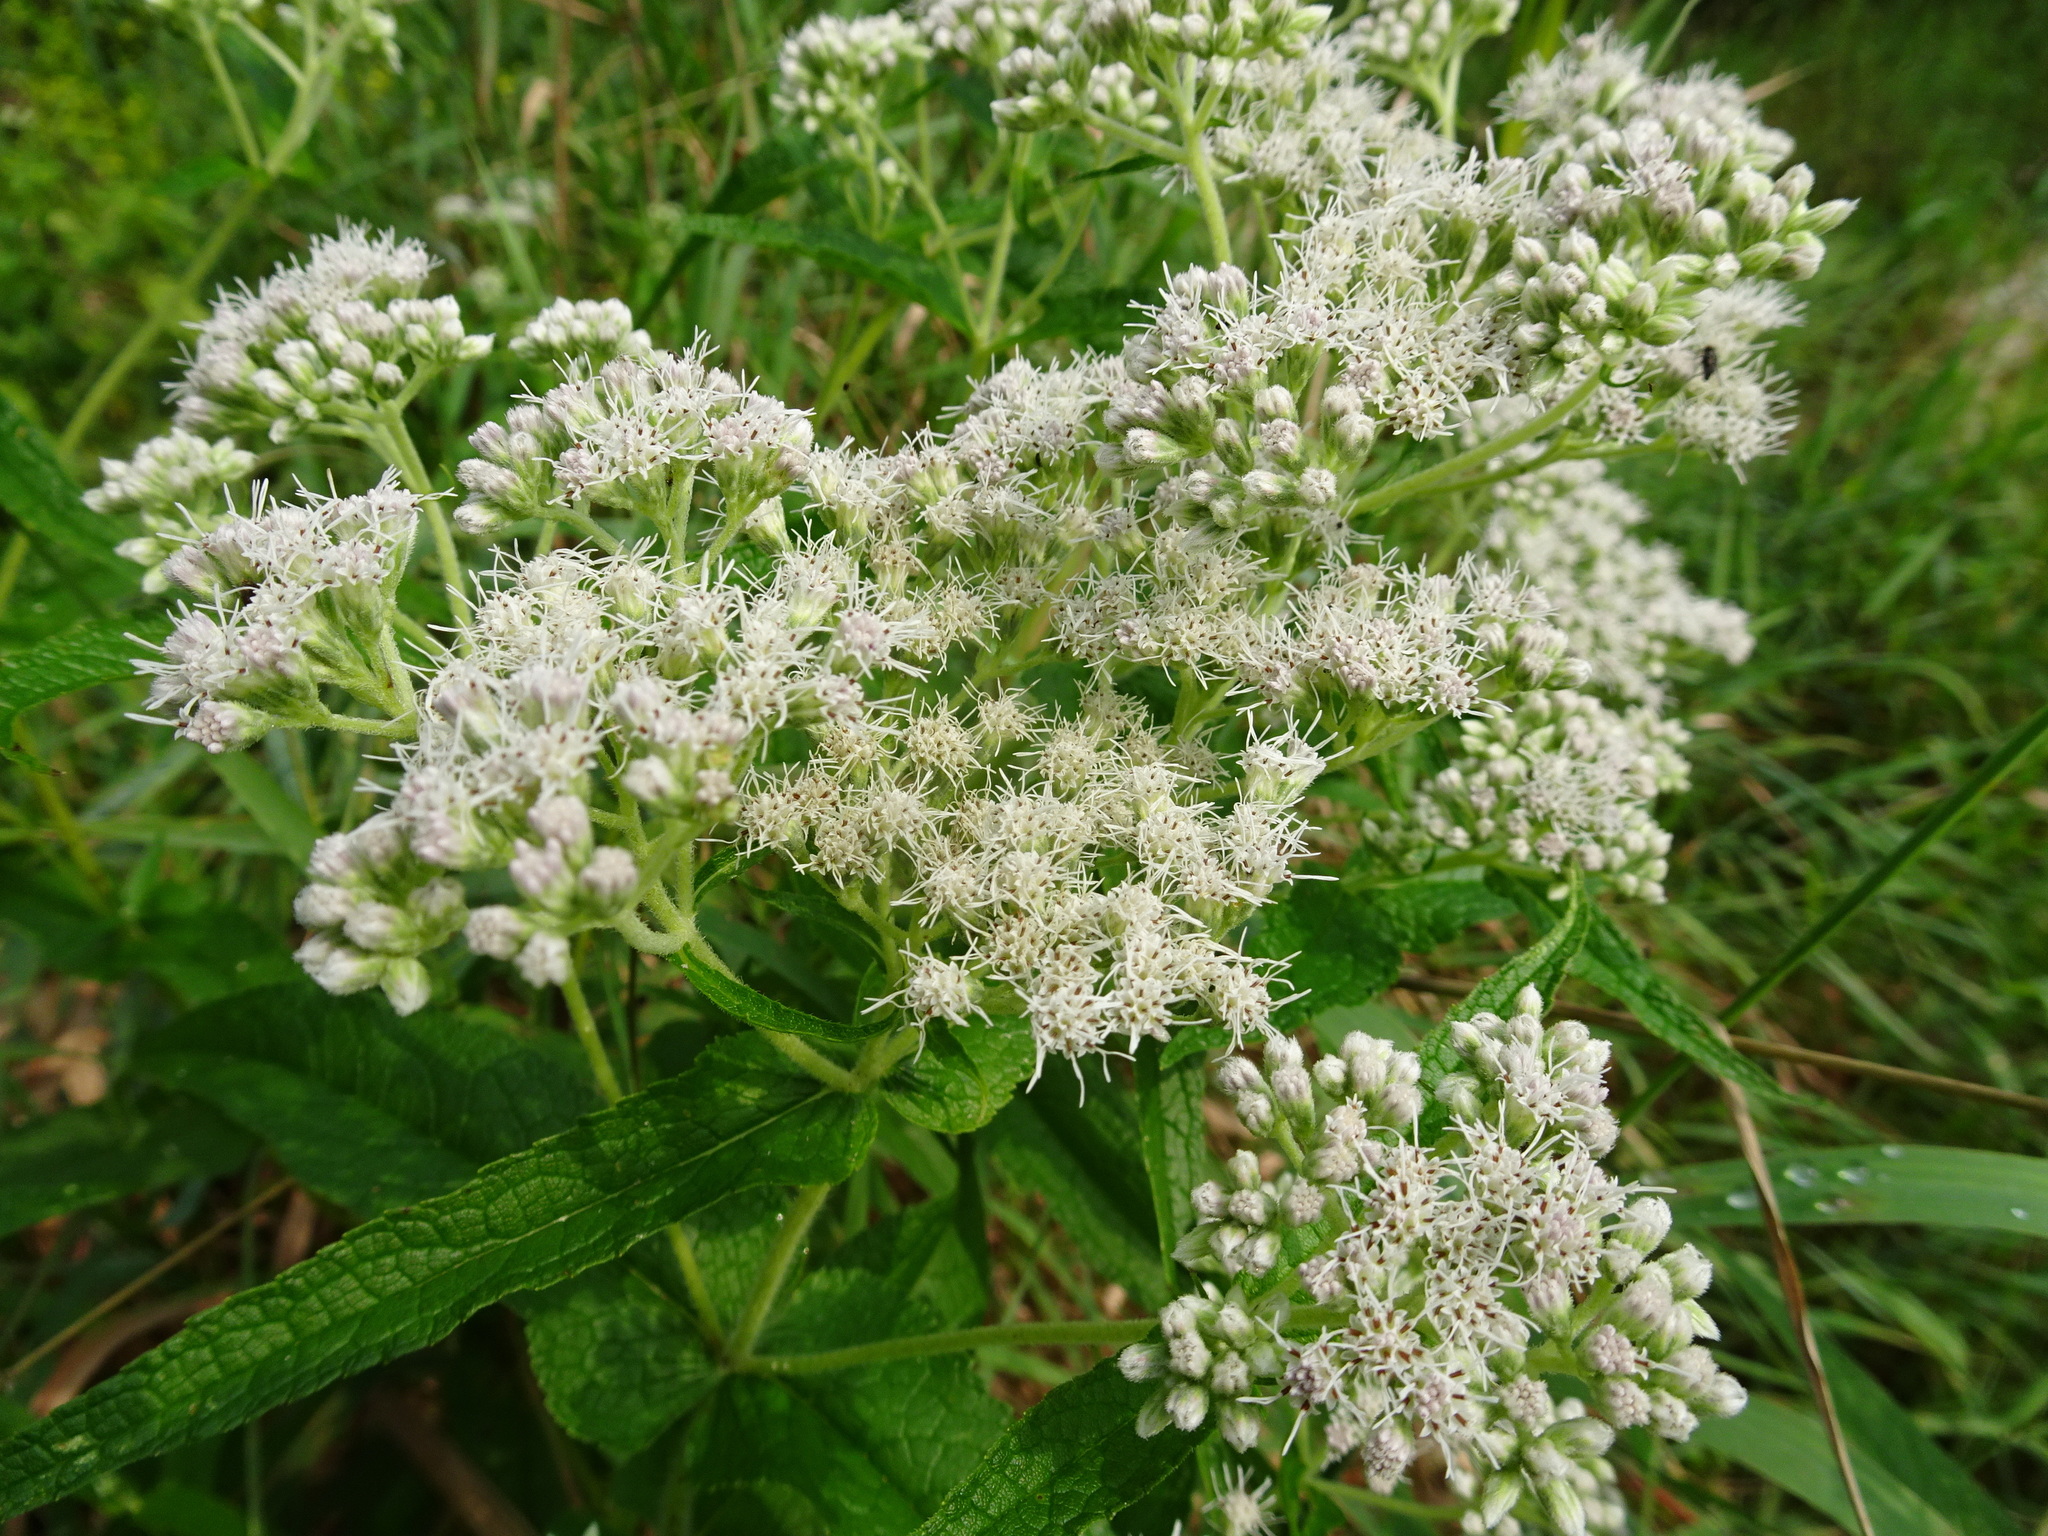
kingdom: Plantae
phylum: Tracheophyta
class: Magnoliopsida
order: Asterales
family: Asteraceae
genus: Eupatorium
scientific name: Eupatorium perfoliatum
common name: Boneset
